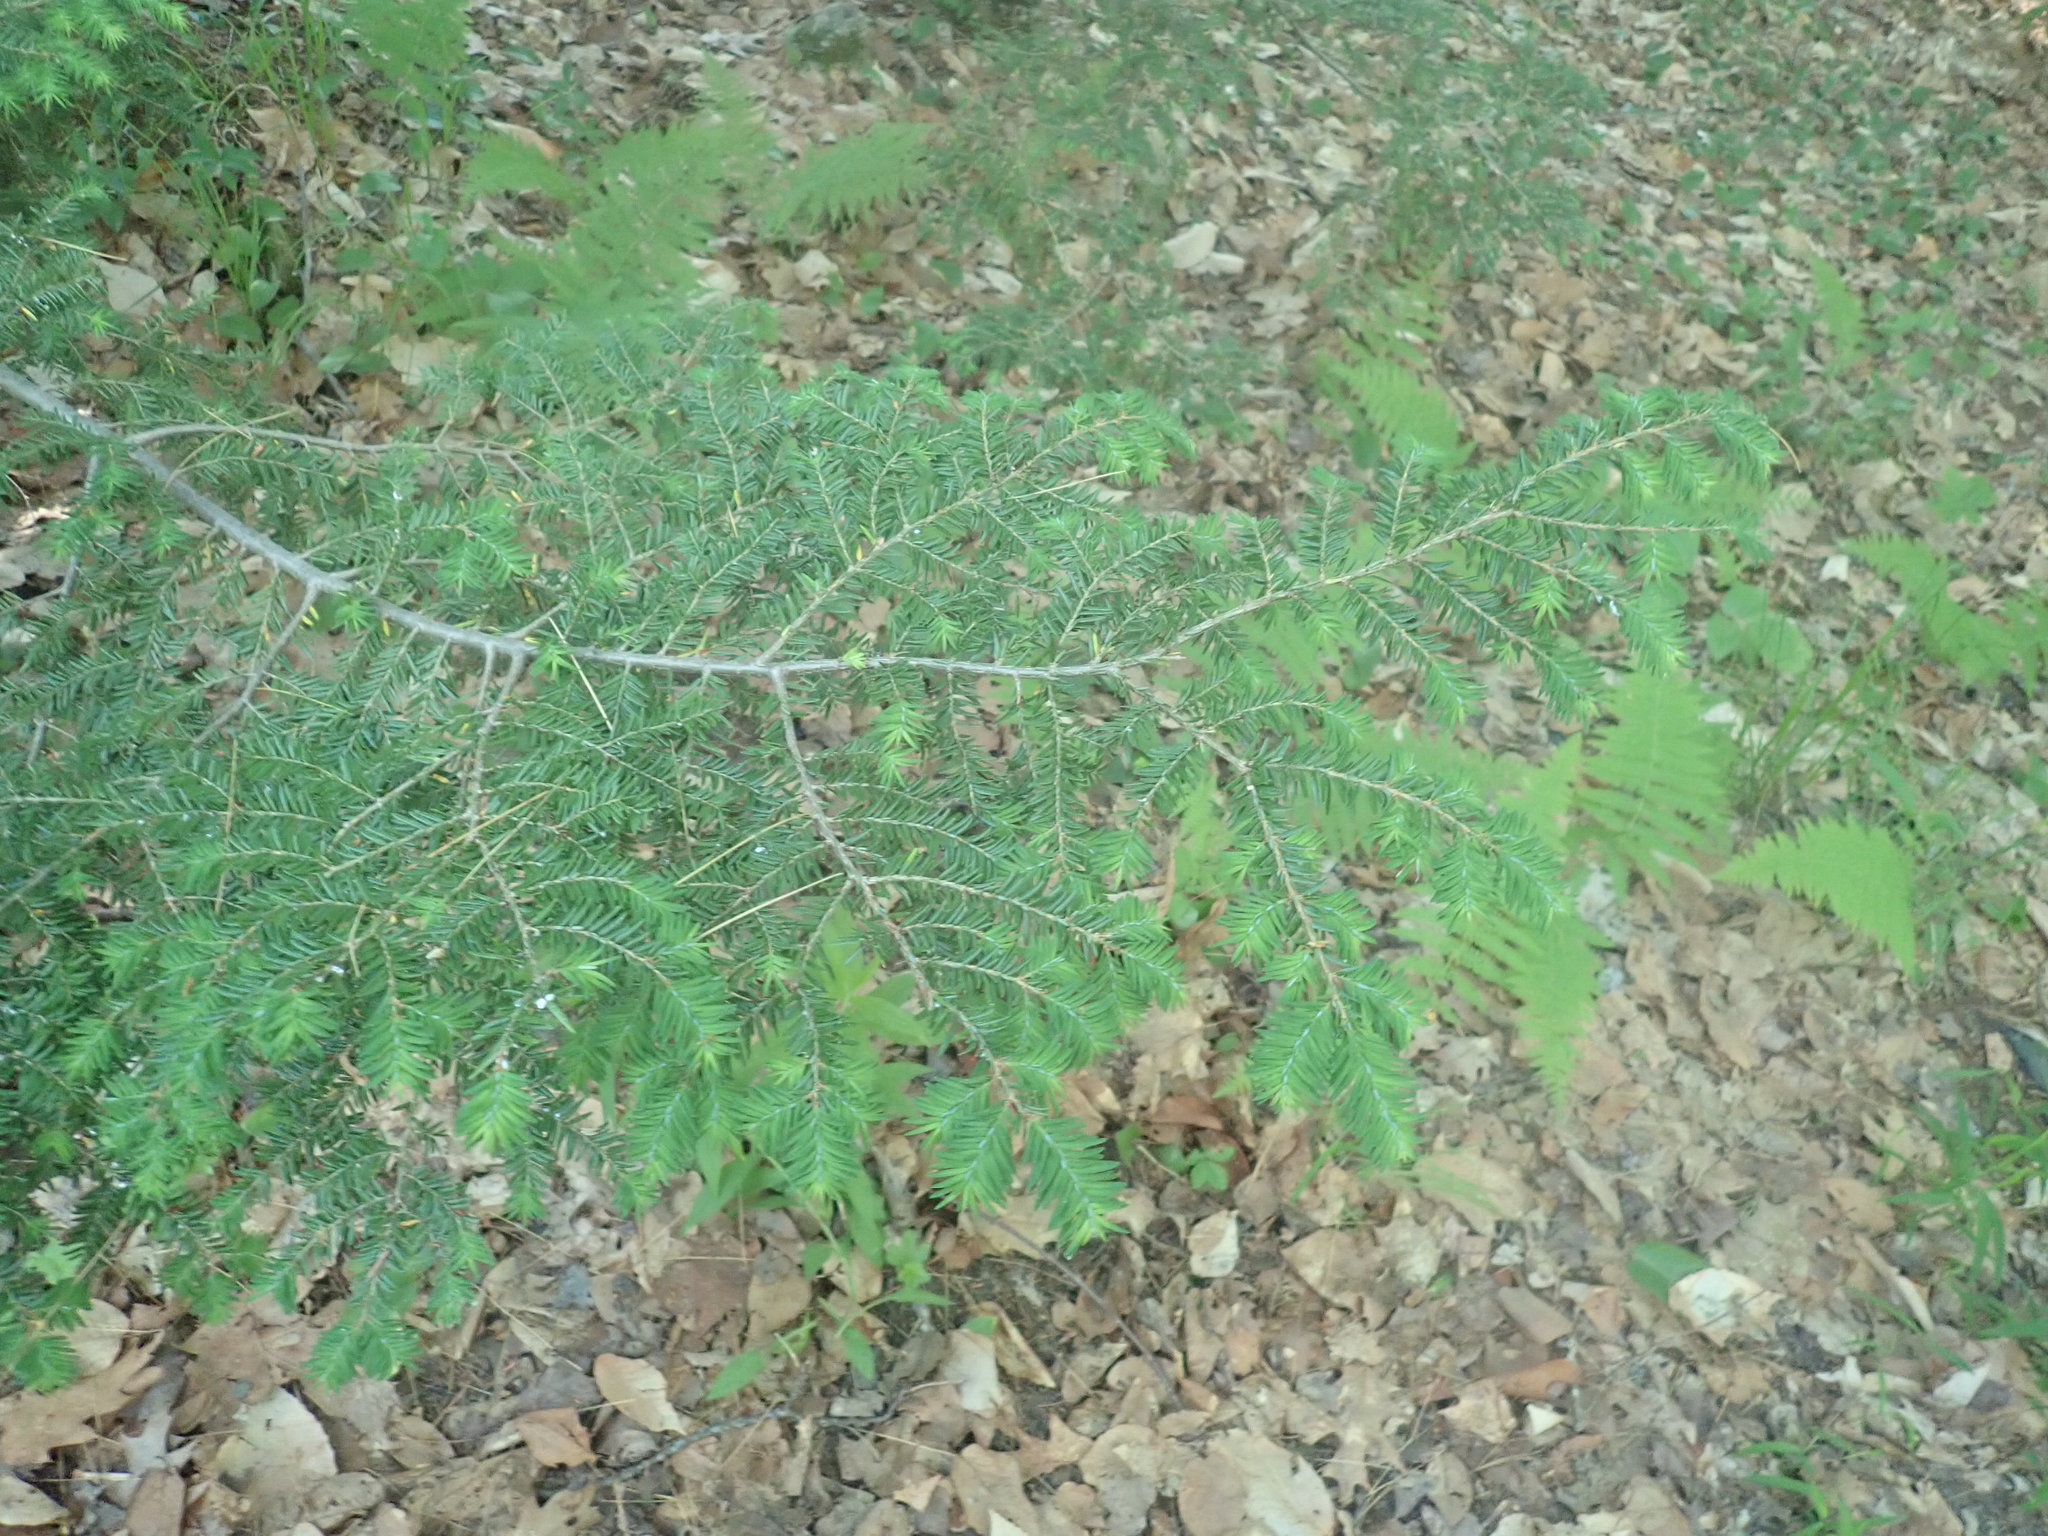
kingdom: Plantae
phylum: Tracheophyta
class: Pinopsida
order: Pinales
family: Pinaceae
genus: Tsuga
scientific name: Tsuga canadensis
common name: Eastern hemlock
